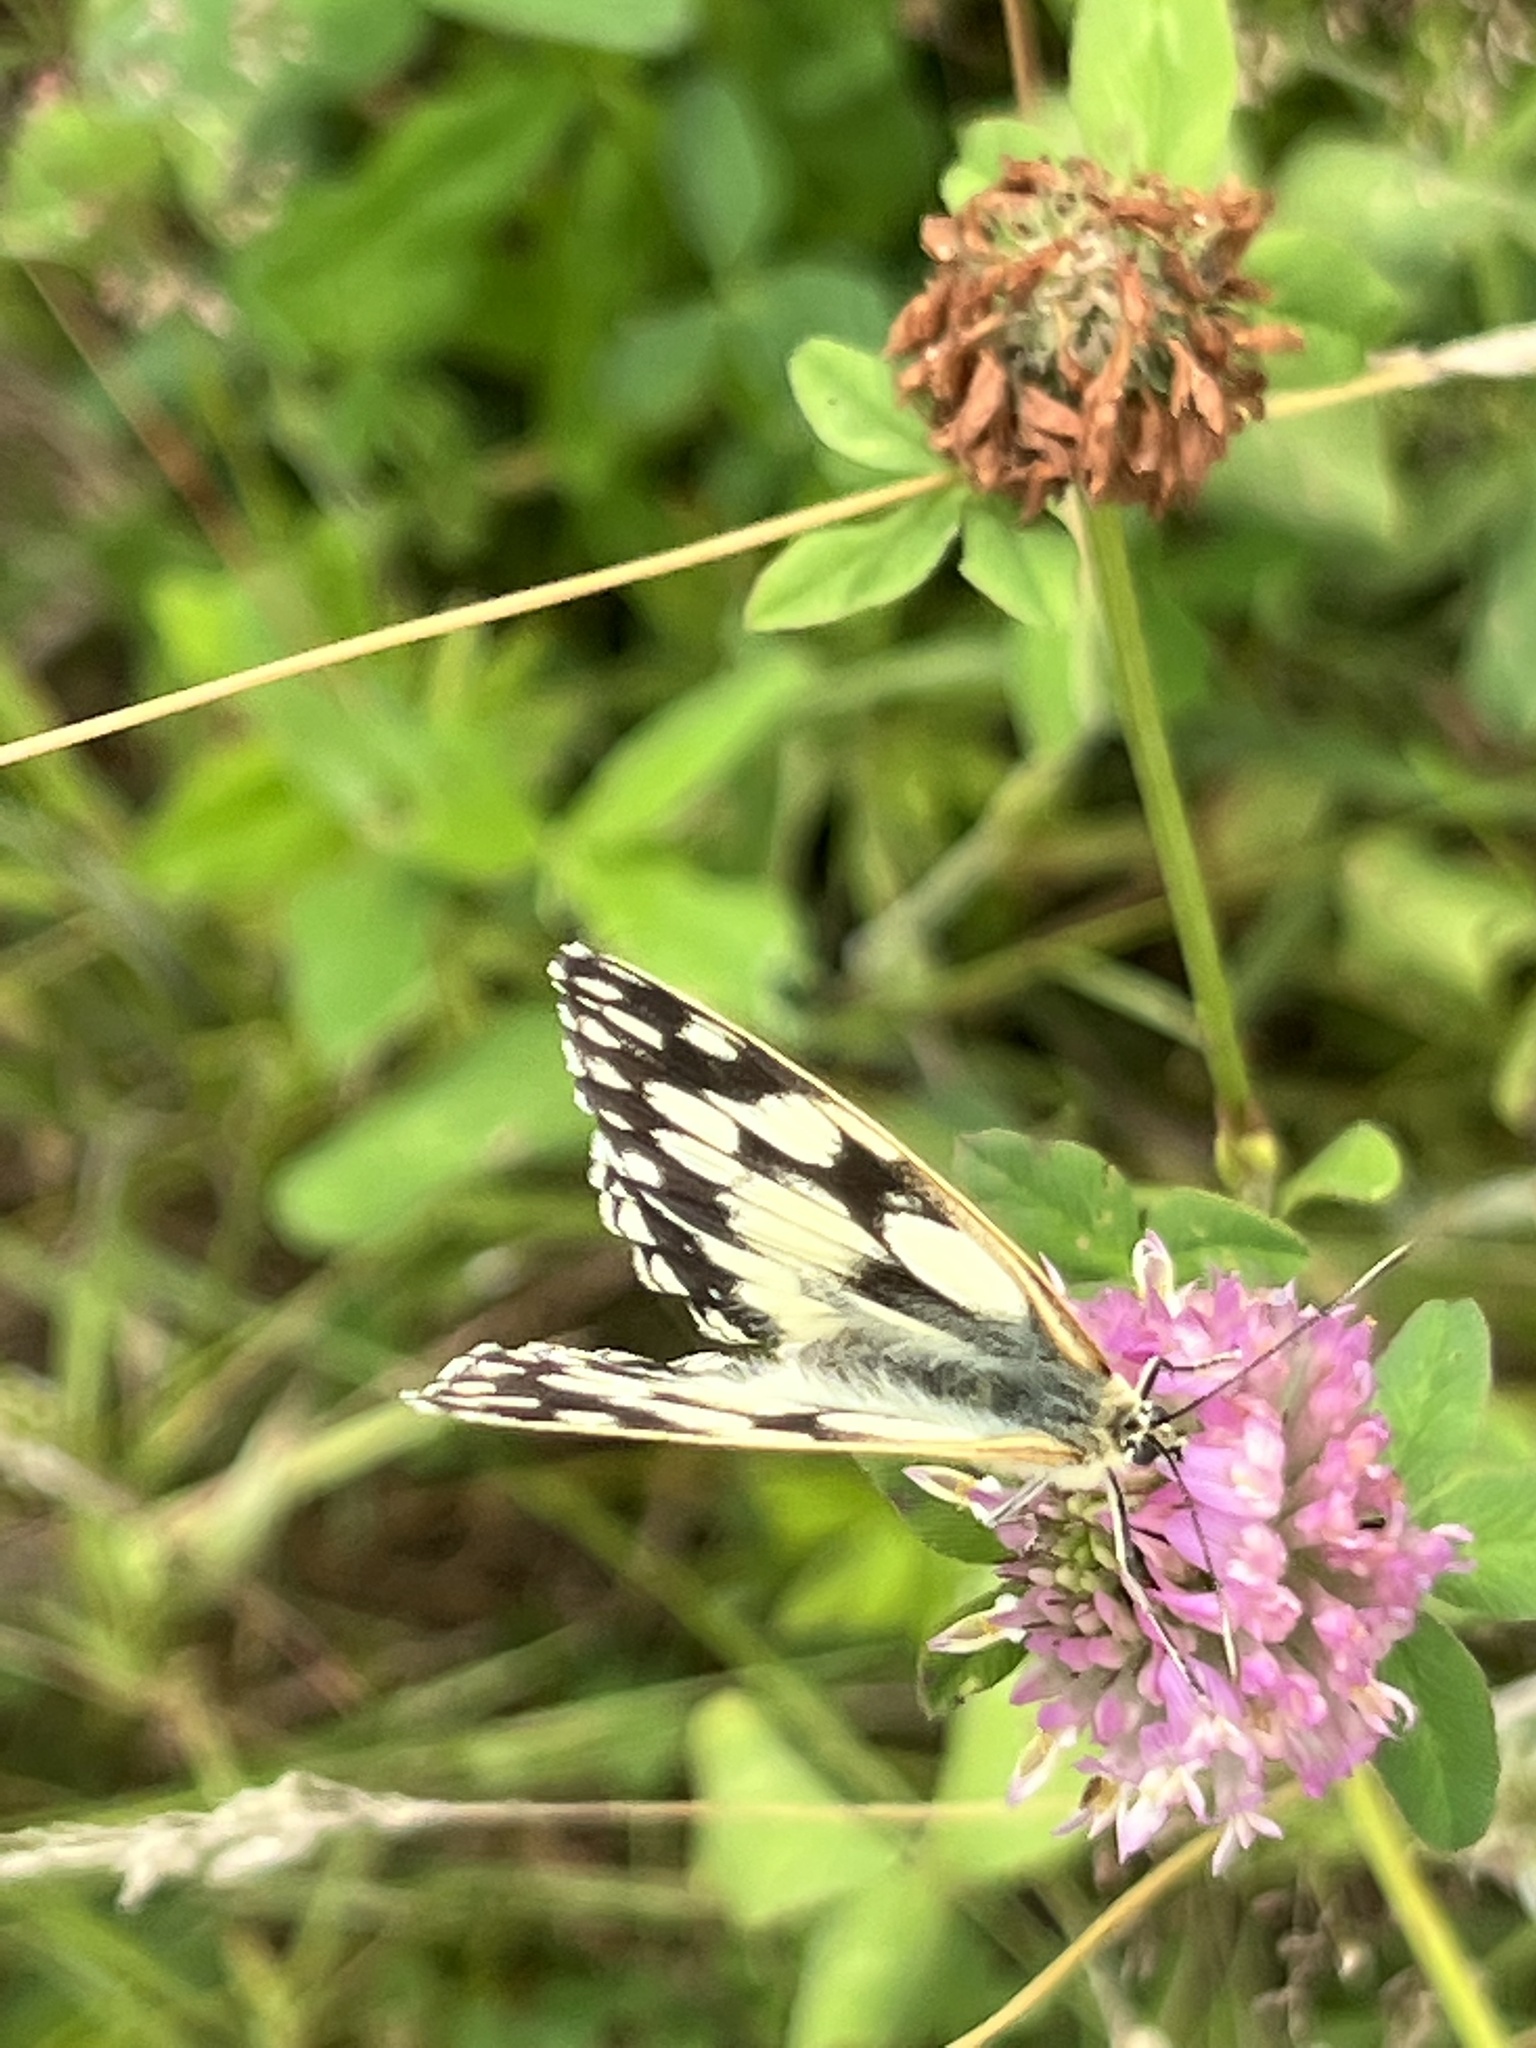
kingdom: Animalia
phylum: Arthropoda
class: Insecta
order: Lepidoptera
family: Nymphalidae
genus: Melanargia
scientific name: Melanargia galathea
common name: Marbled white
